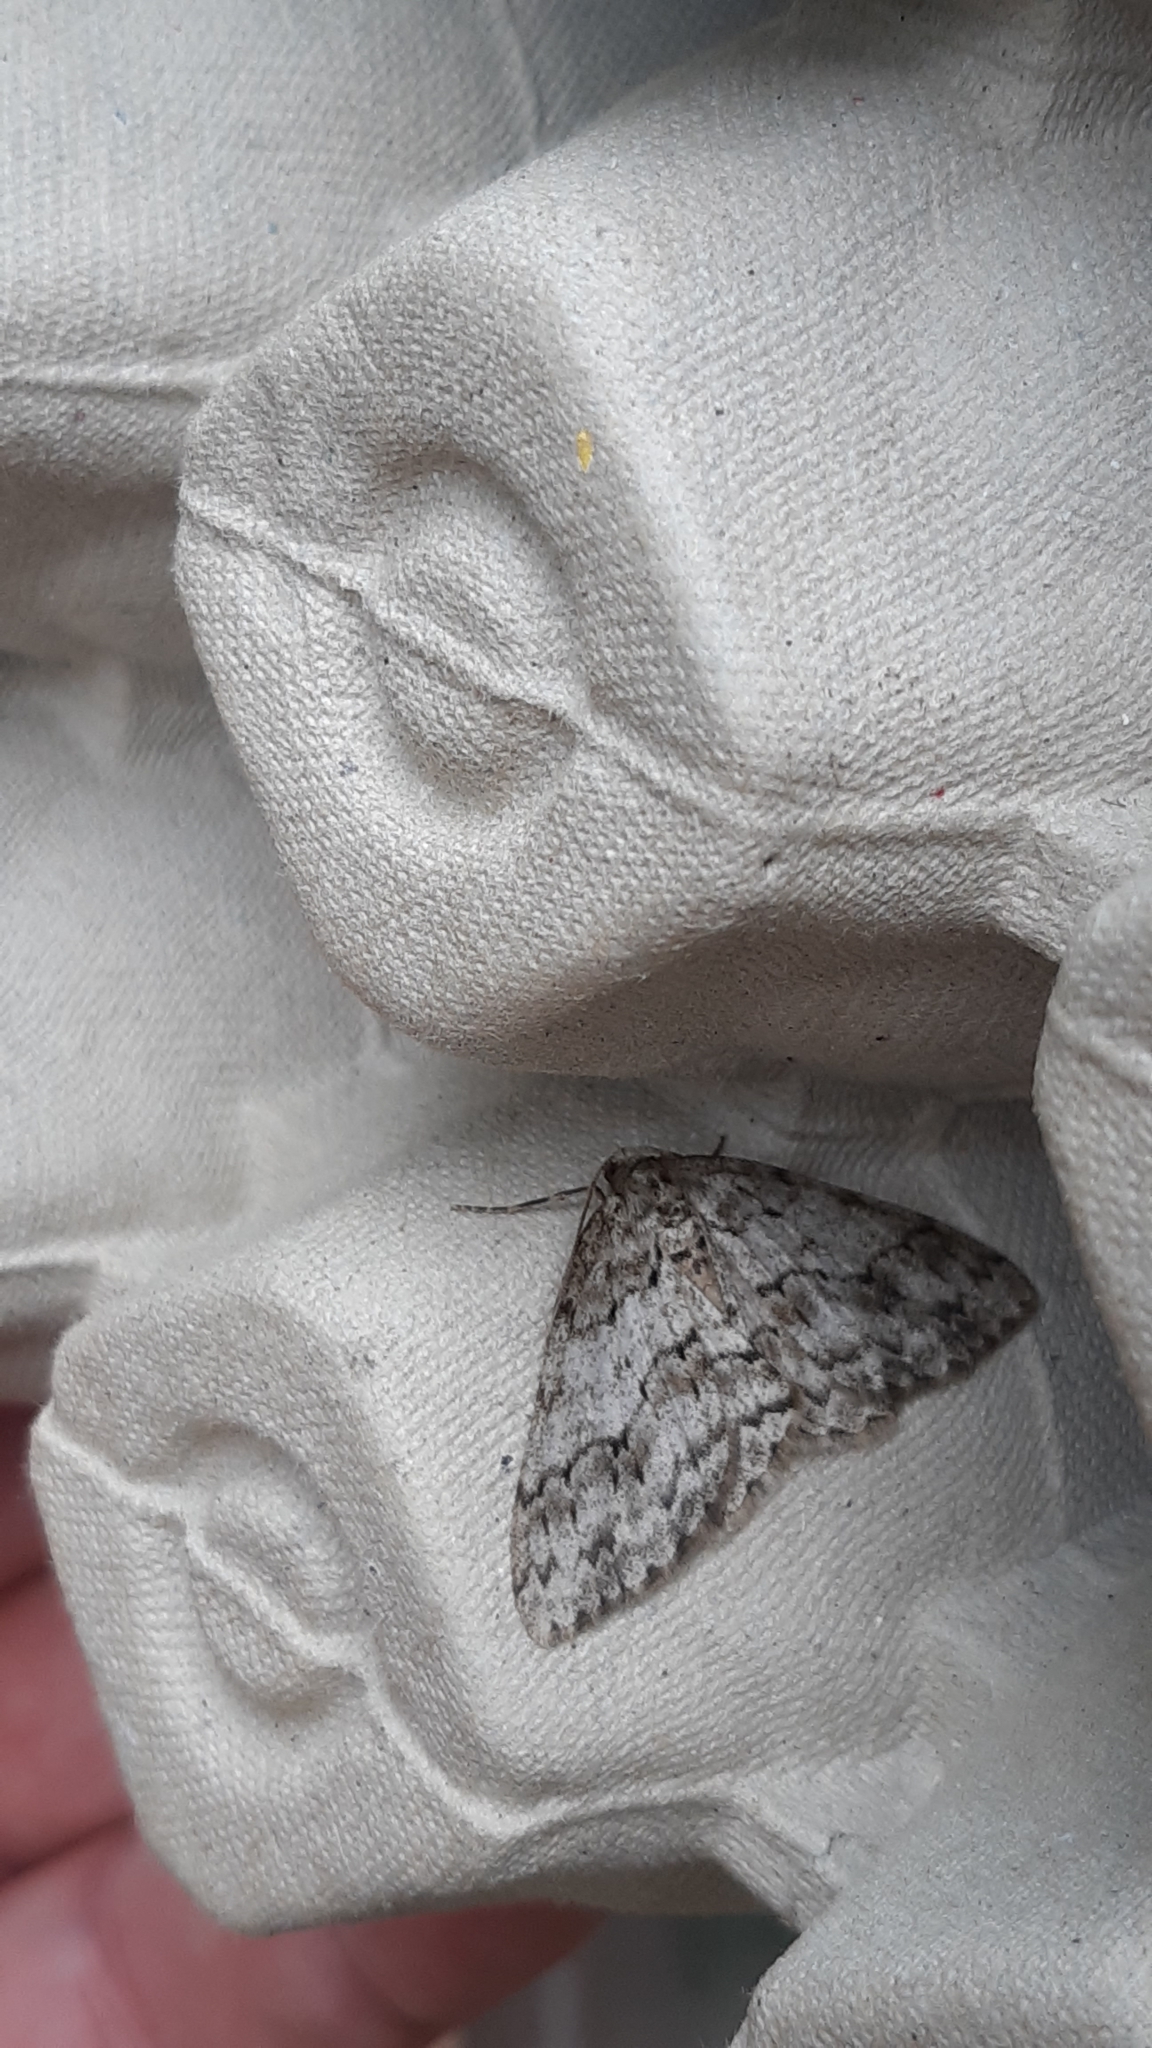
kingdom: Animalia
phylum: Arthropoda
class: Insecta
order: Lepidoptera
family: Geometridae
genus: Ectropis
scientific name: Ectropis crepuscularia
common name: Engrailed
